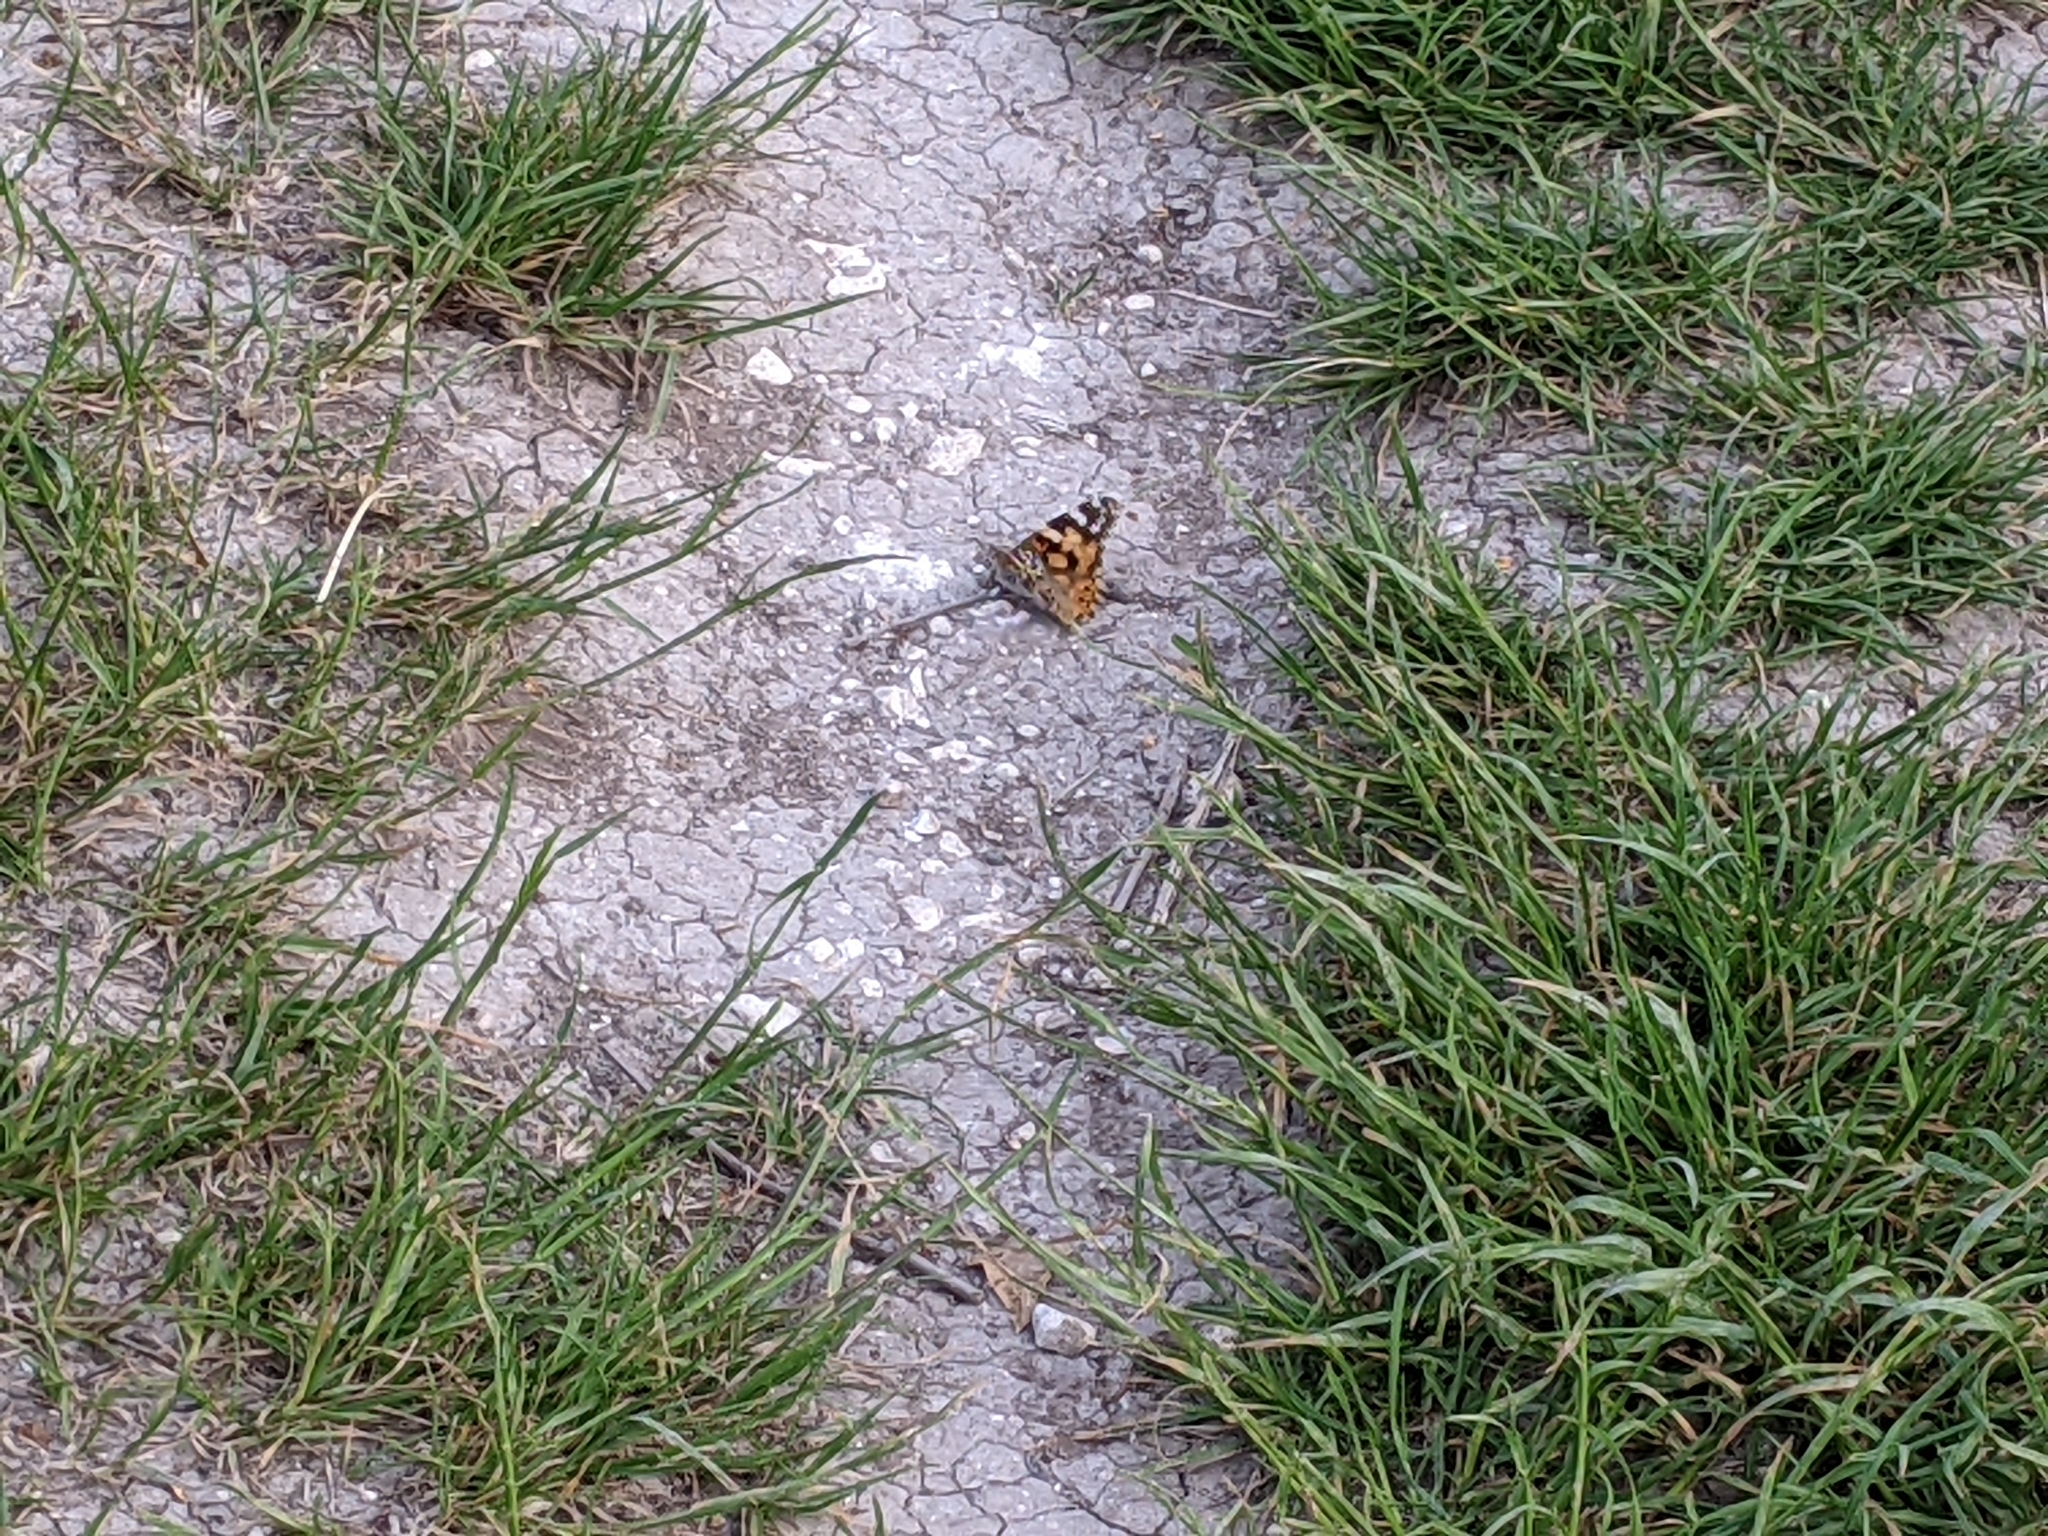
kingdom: Animalia
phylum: Arthropoda
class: Insecta
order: Lepidoptera
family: Nymphalidae
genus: Vanessa
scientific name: Vanessa cardui
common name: Painted lady
